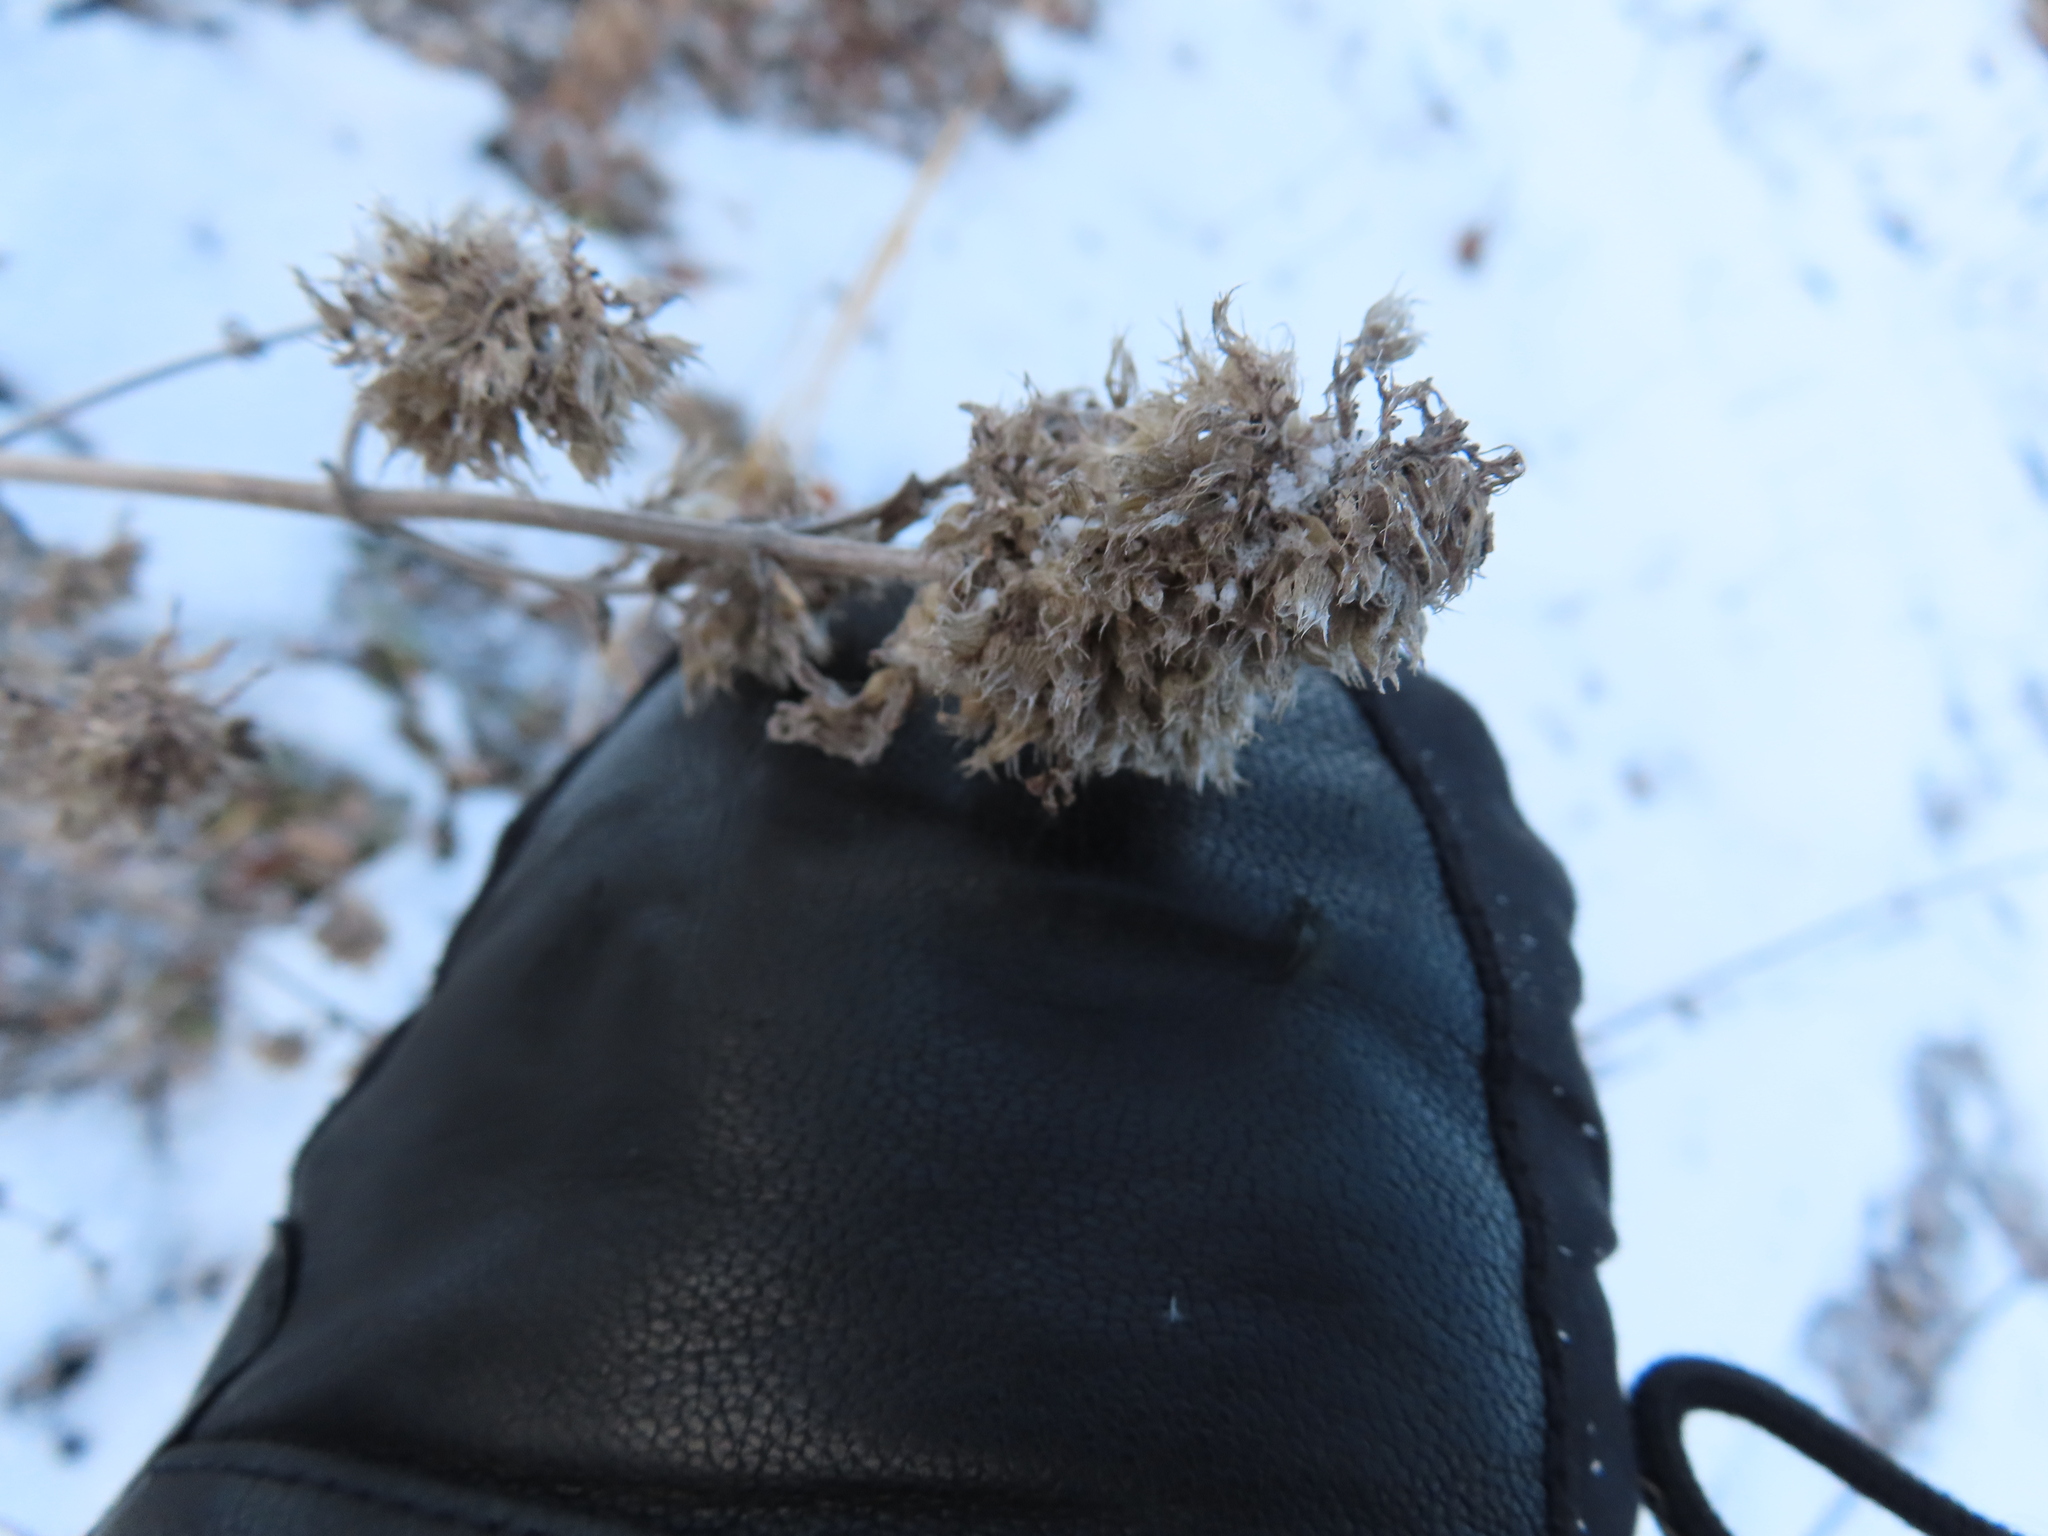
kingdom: Plantae
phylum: Tracheophyta
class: Magnoliopsida
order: Lamiales
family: Lamiaceae
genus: Nepeta
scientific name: Nepeta cataria
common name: Catnip
